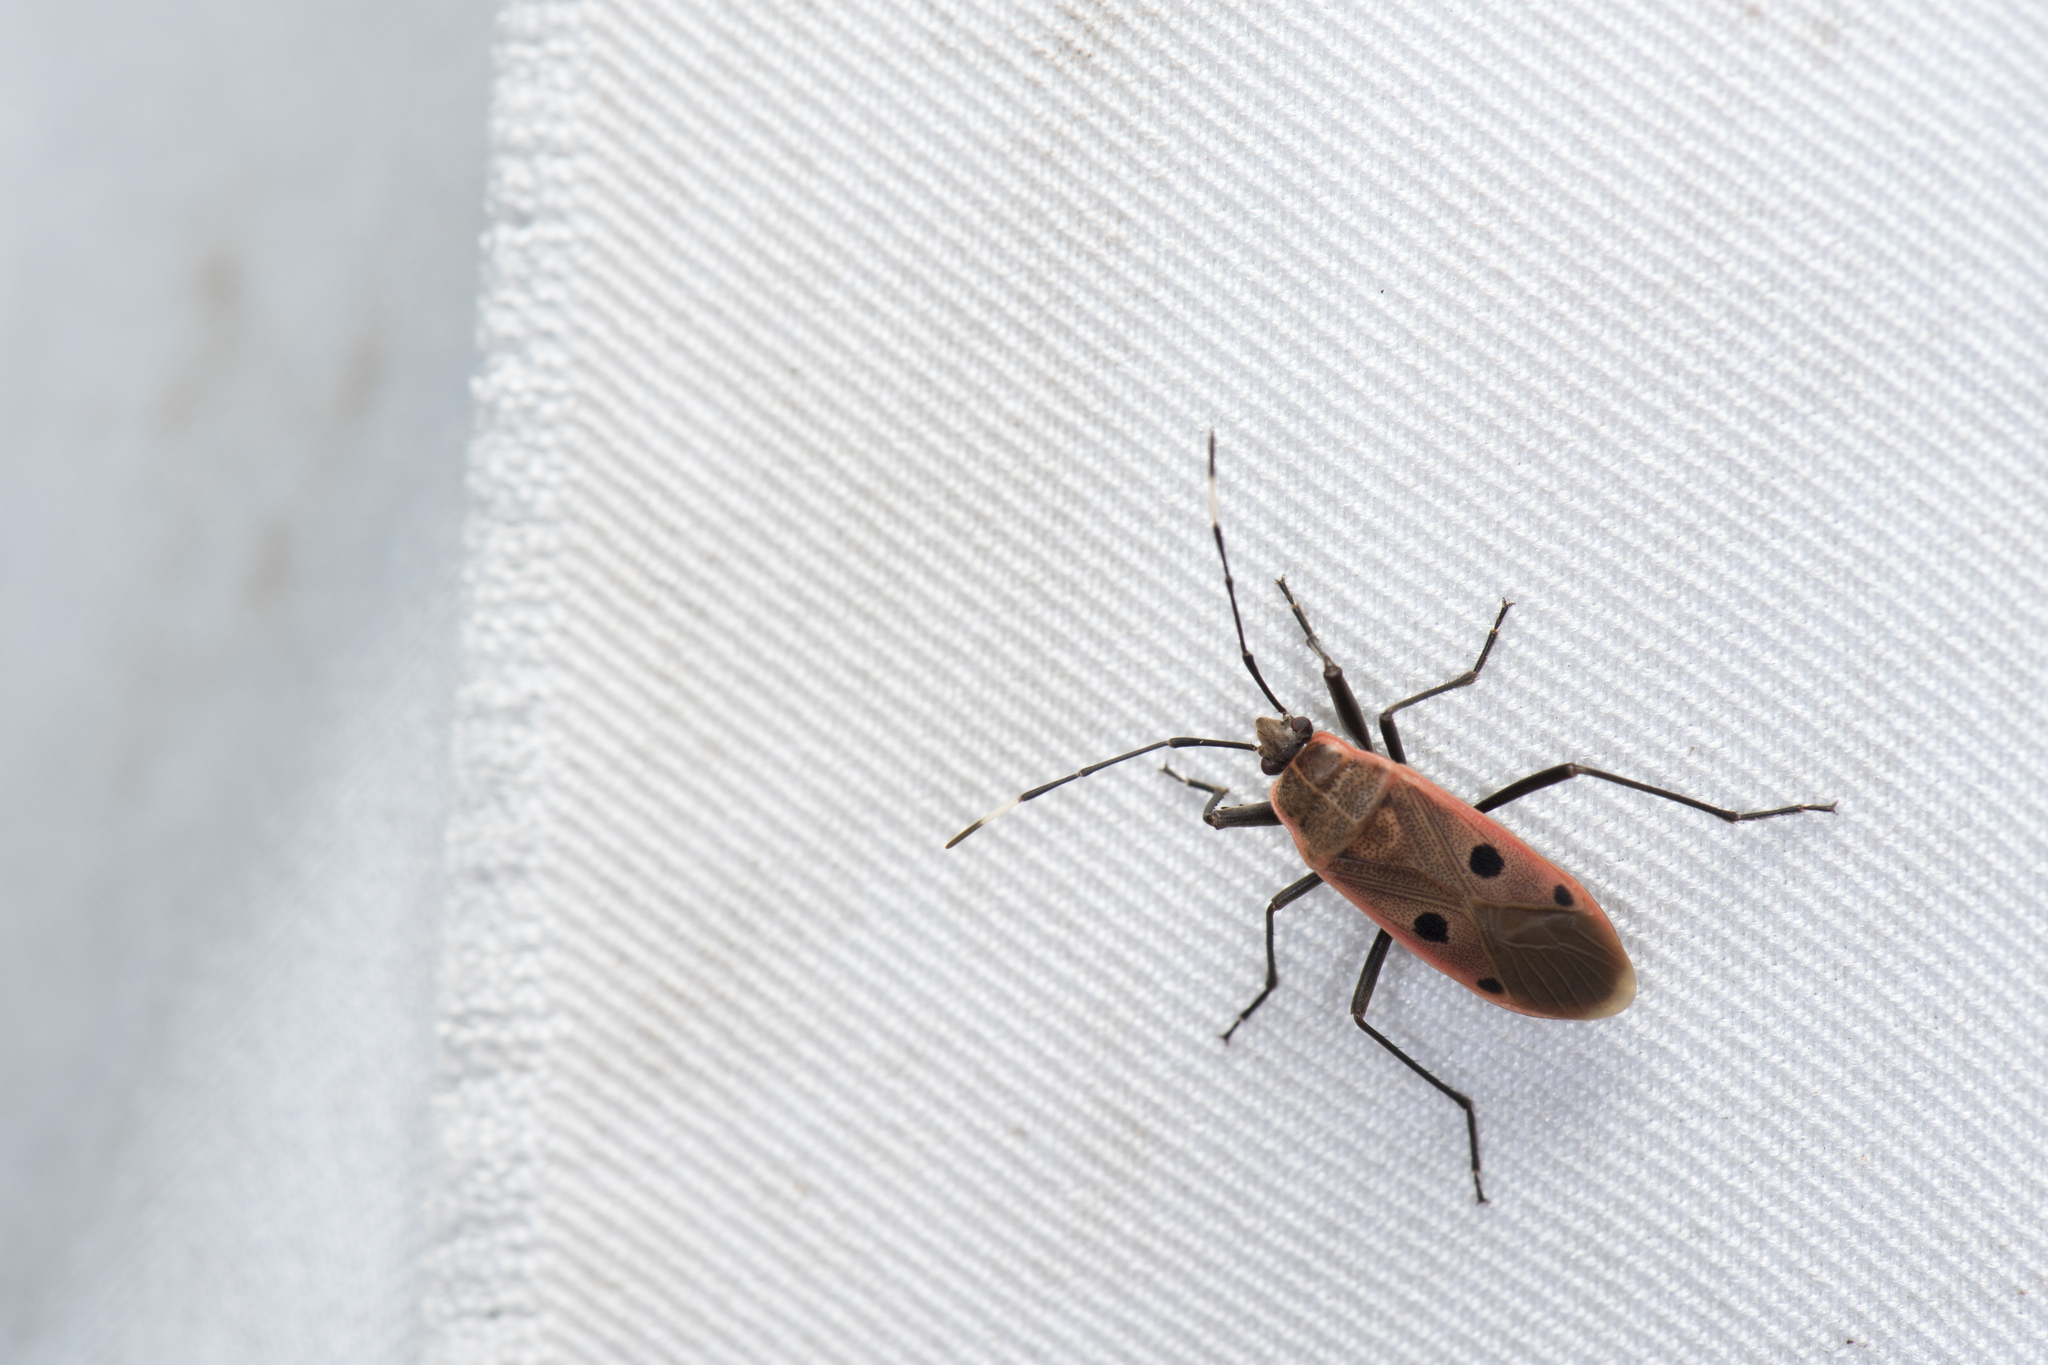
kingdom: Animalia
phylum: Arthropoda
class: Insecta
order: Hemiptera
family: Largidae
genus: Physopelta
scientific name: Physopelta quadriguttata
